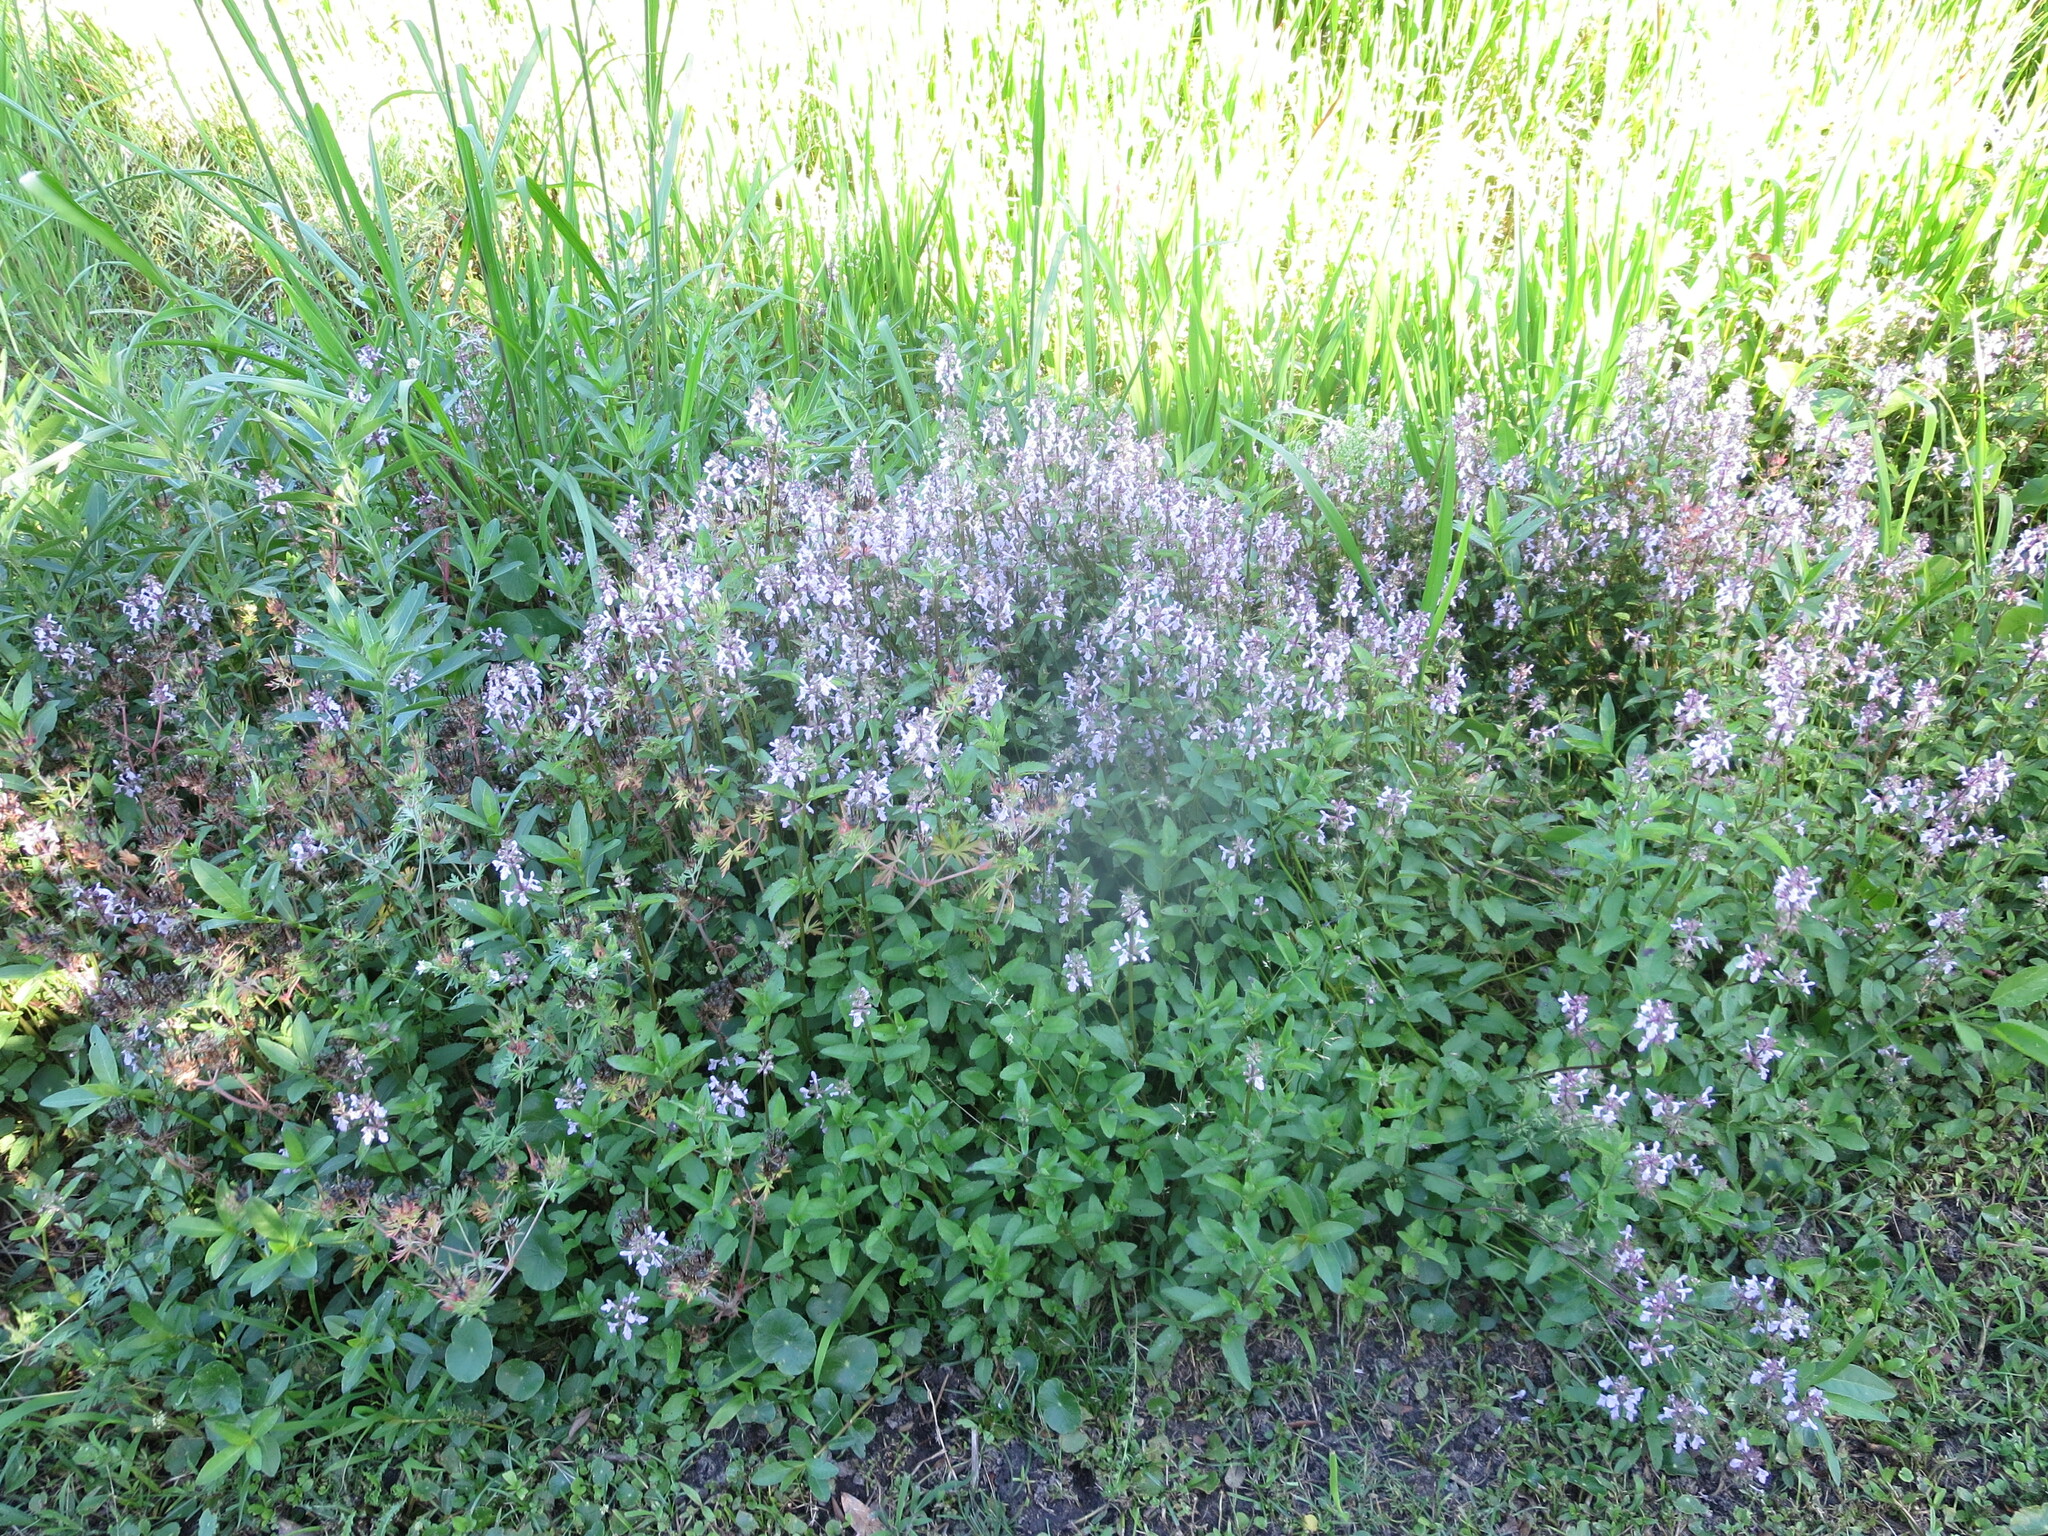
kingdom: Plantae
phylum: Tracheophyta
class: Magnoliopsida
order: Lamiales
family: Lamiaceae
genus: Stachys
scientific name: Stachys floridana
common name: Florida betony
